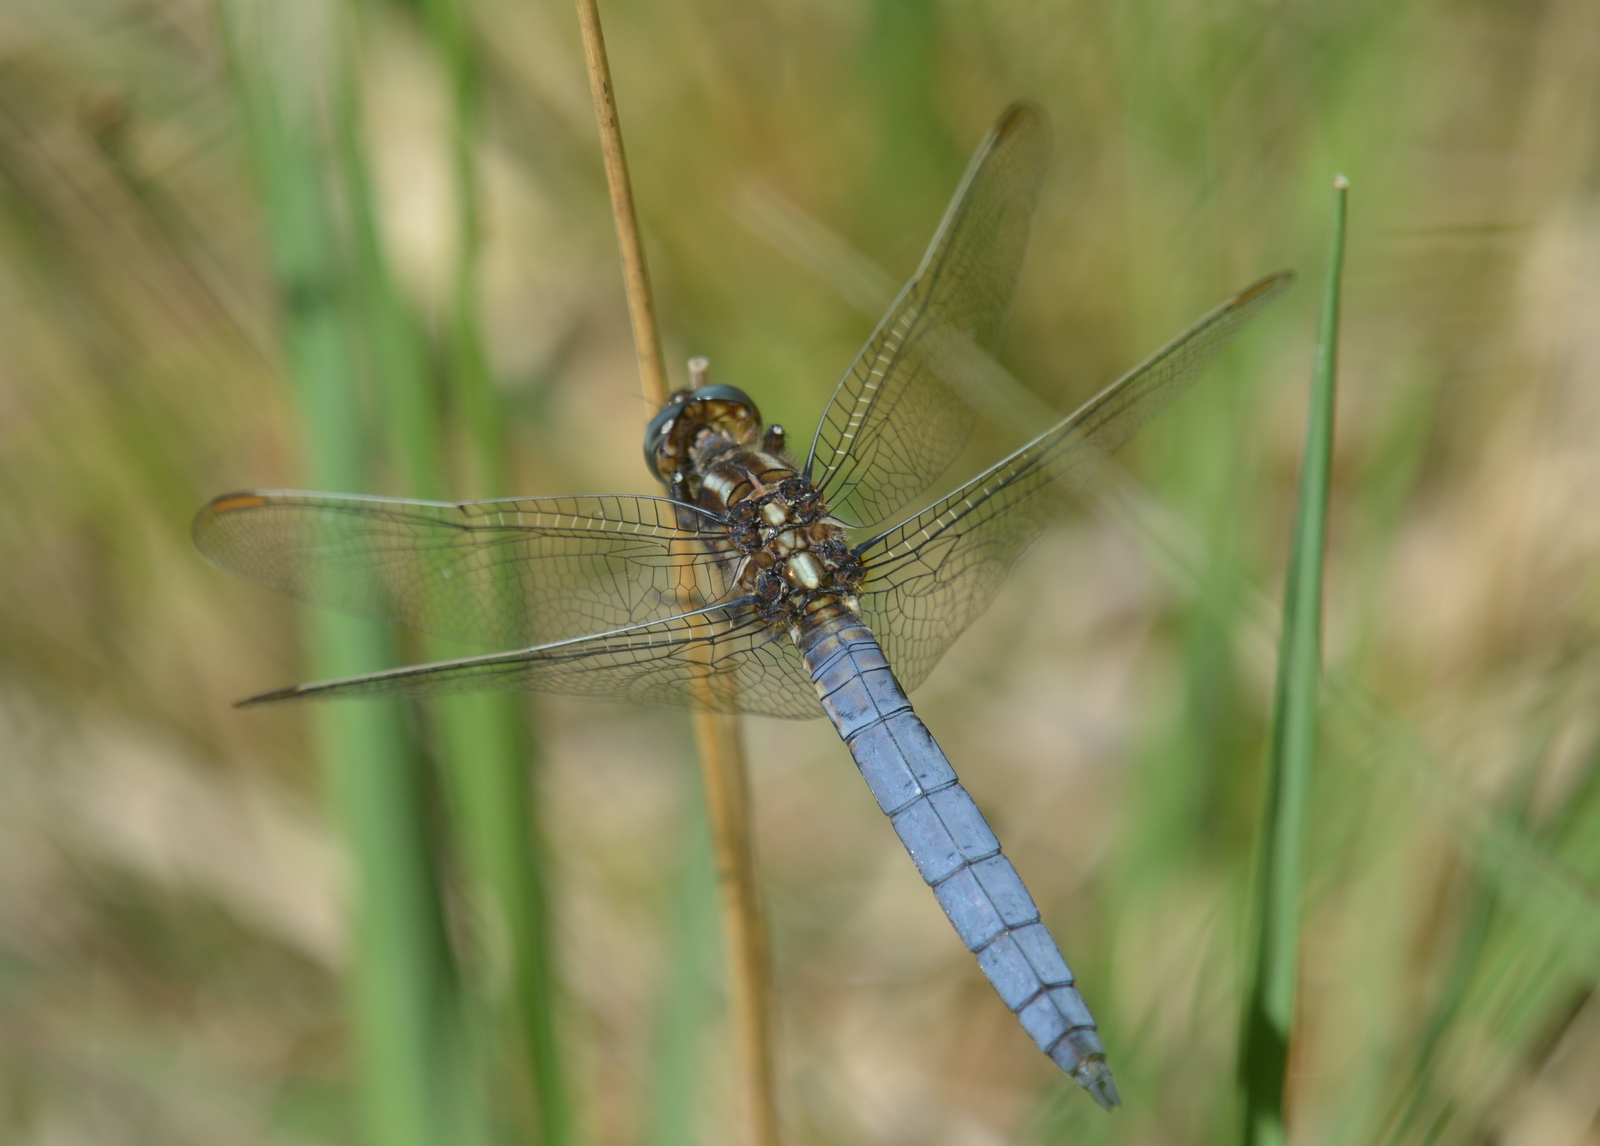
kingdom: Animalia
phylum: Arthropoda
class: Insecta
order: Odonata
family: Libellulidae
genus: Orthetrum
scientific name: Orthetrum coerulescens
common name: Keeled skimmer
